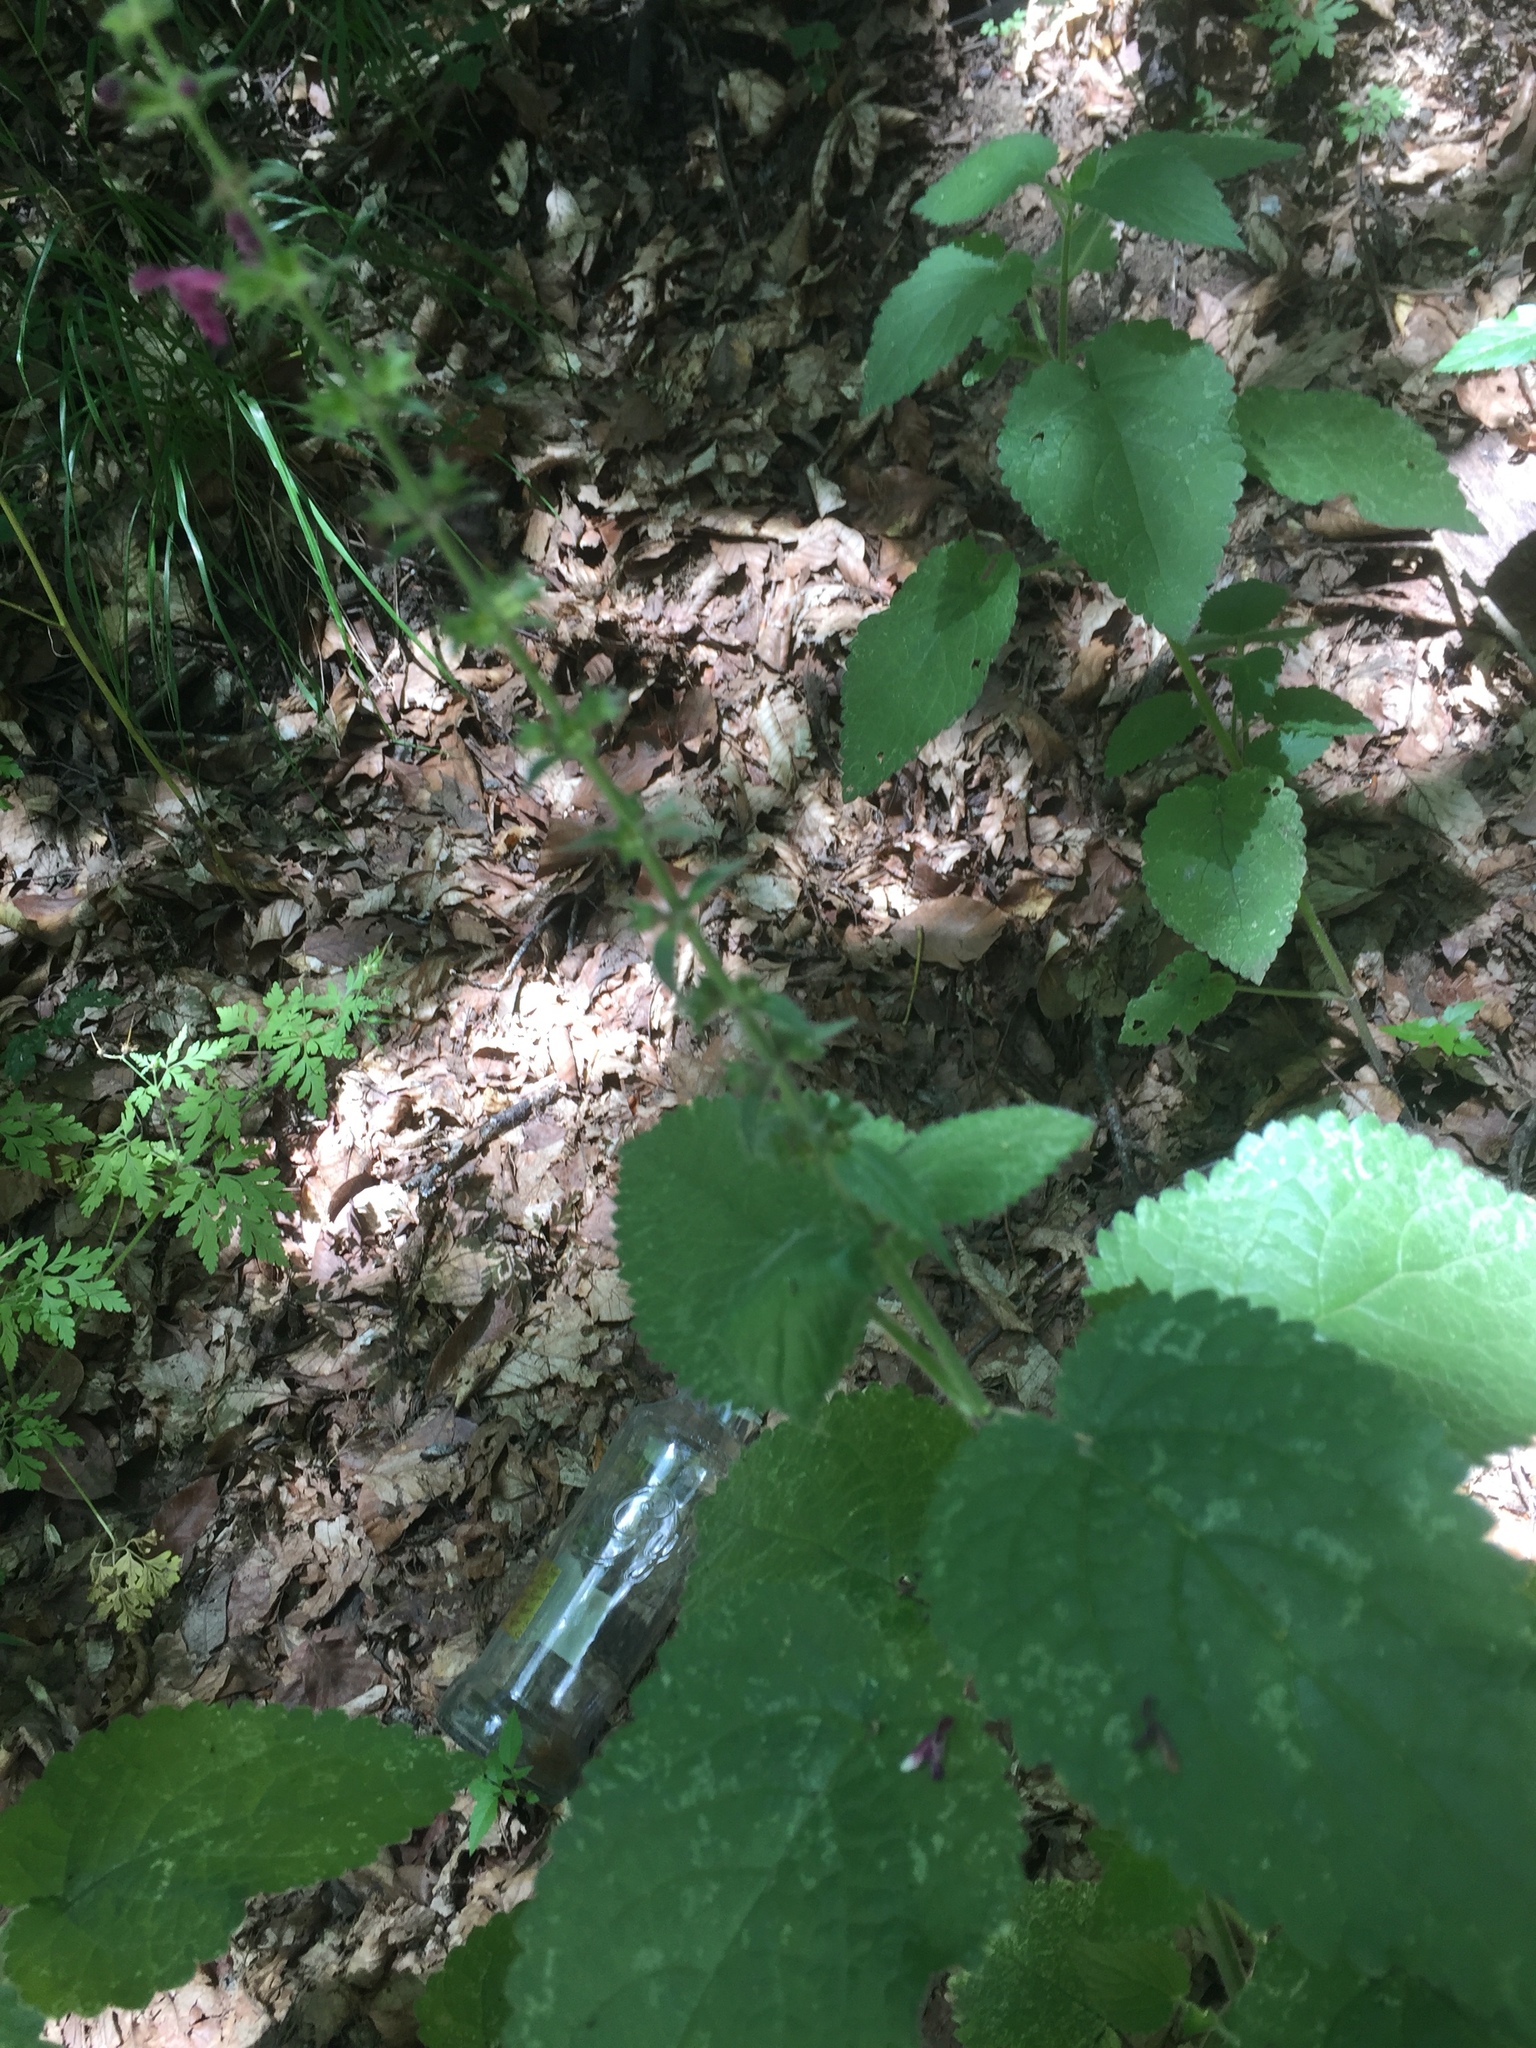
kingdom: Plantae
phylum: Tracheophyta
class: Magnoliopsida
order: Lamiales
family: Lamiaceae
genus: Stachys
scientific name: Stachys sylvatica
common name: Hedge woundwort
